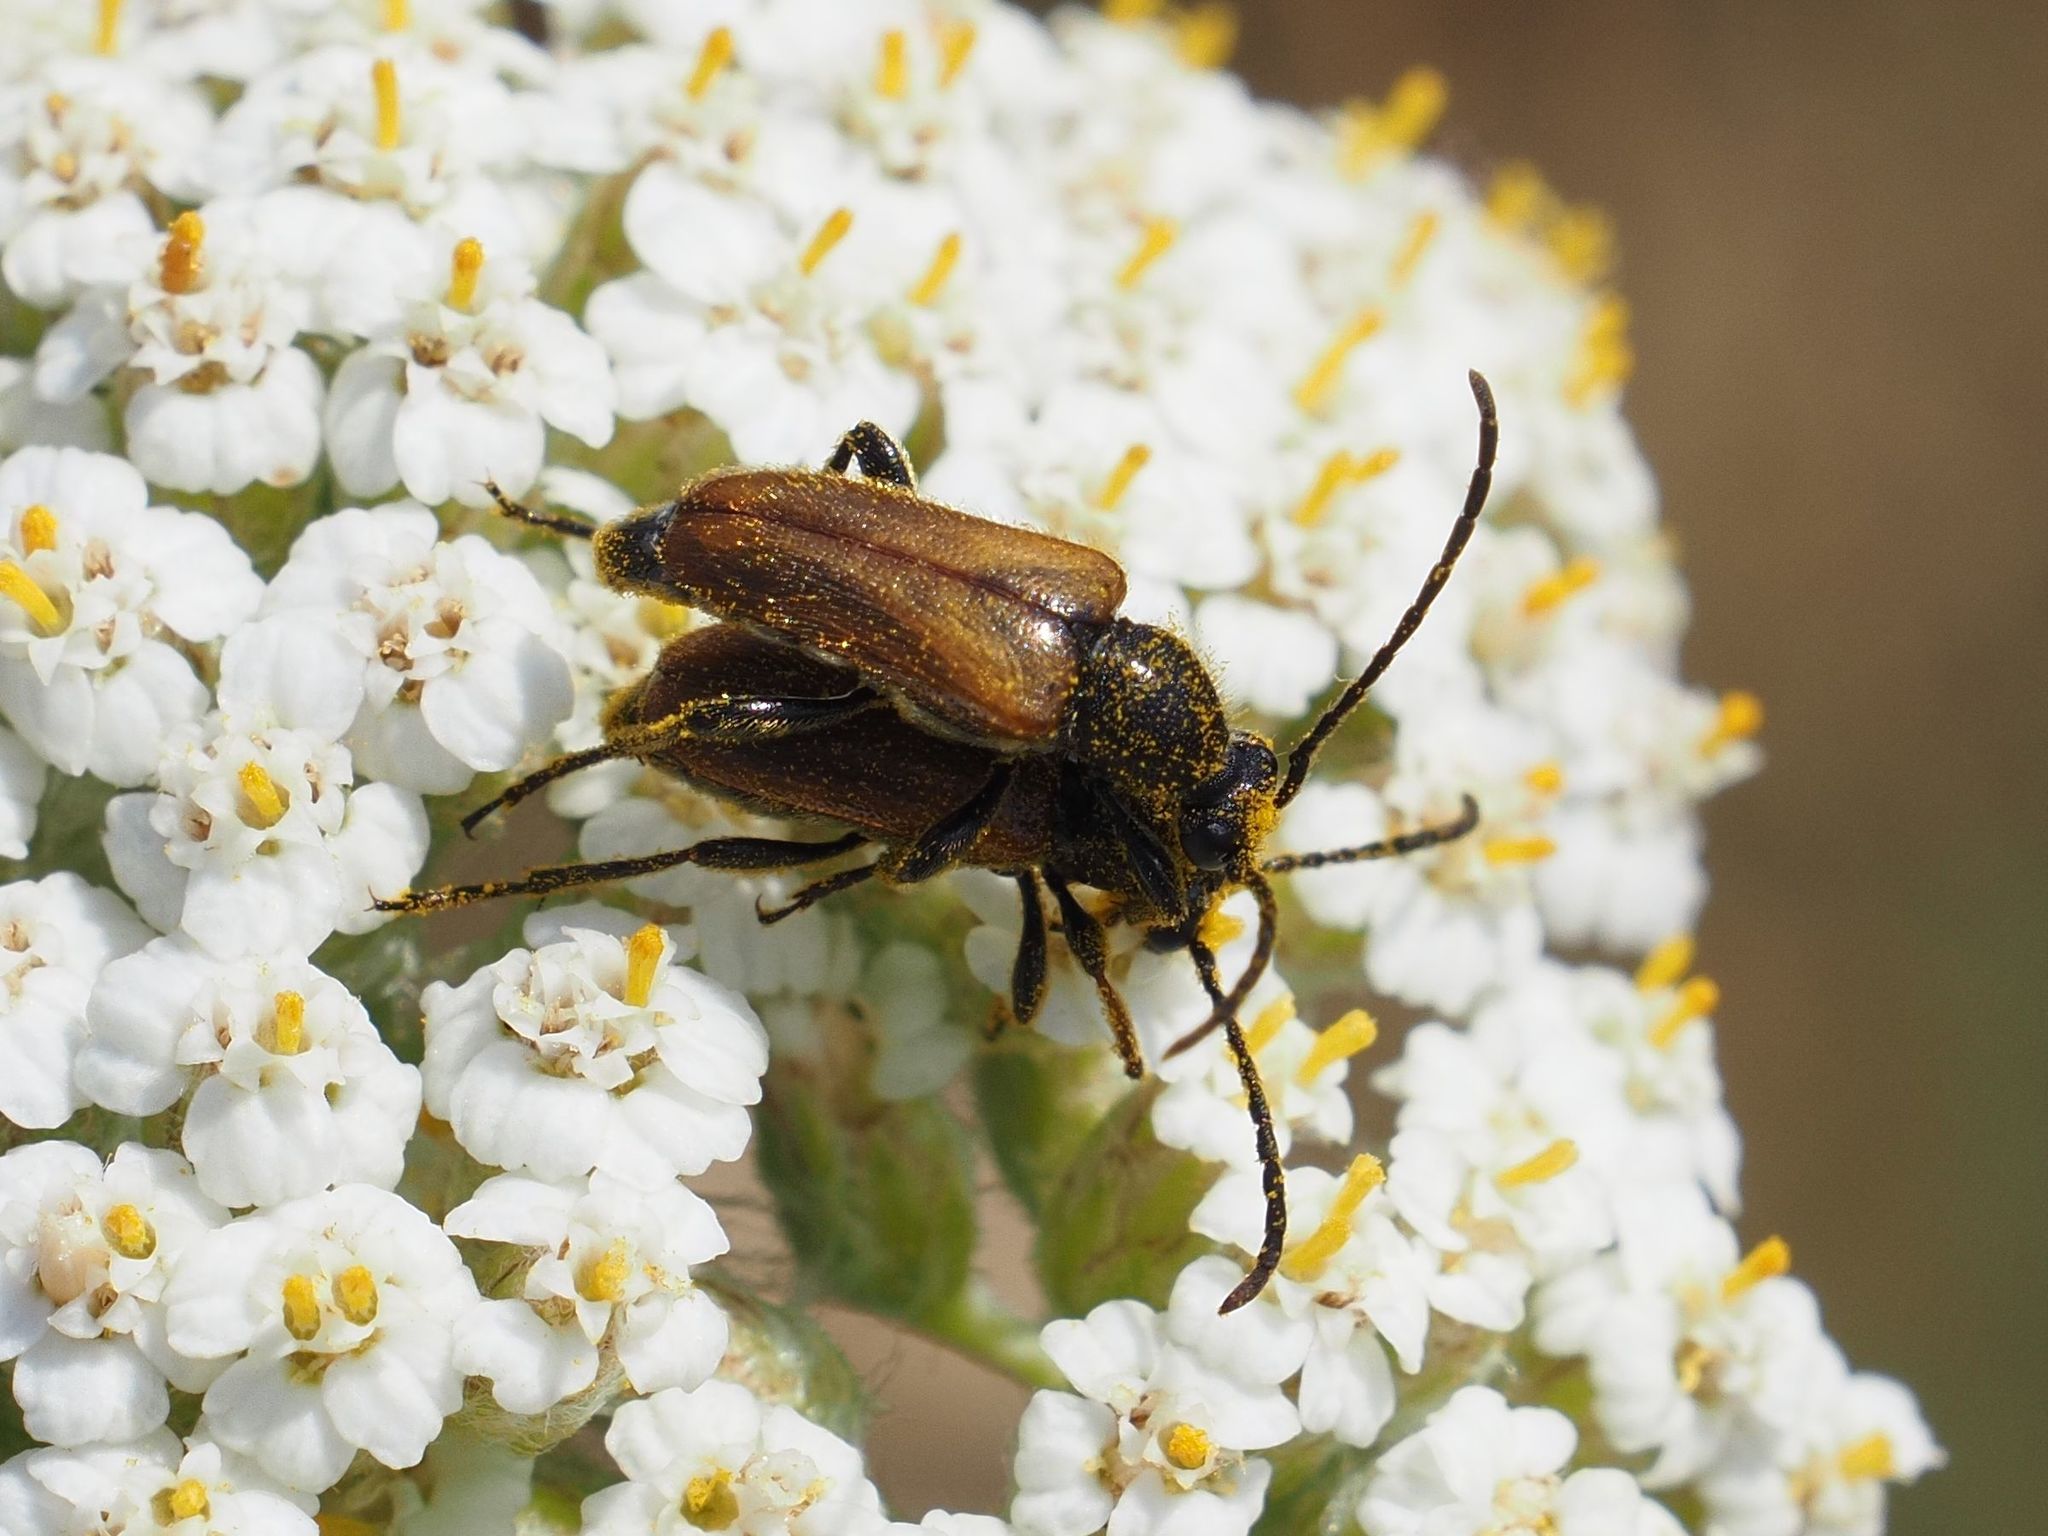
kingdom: Animalia
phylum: Arthropoda
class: Insecta
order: Coleoptera
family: Cerambycidae
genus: Pseudovadonia
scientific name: Pseudovadonia livida
